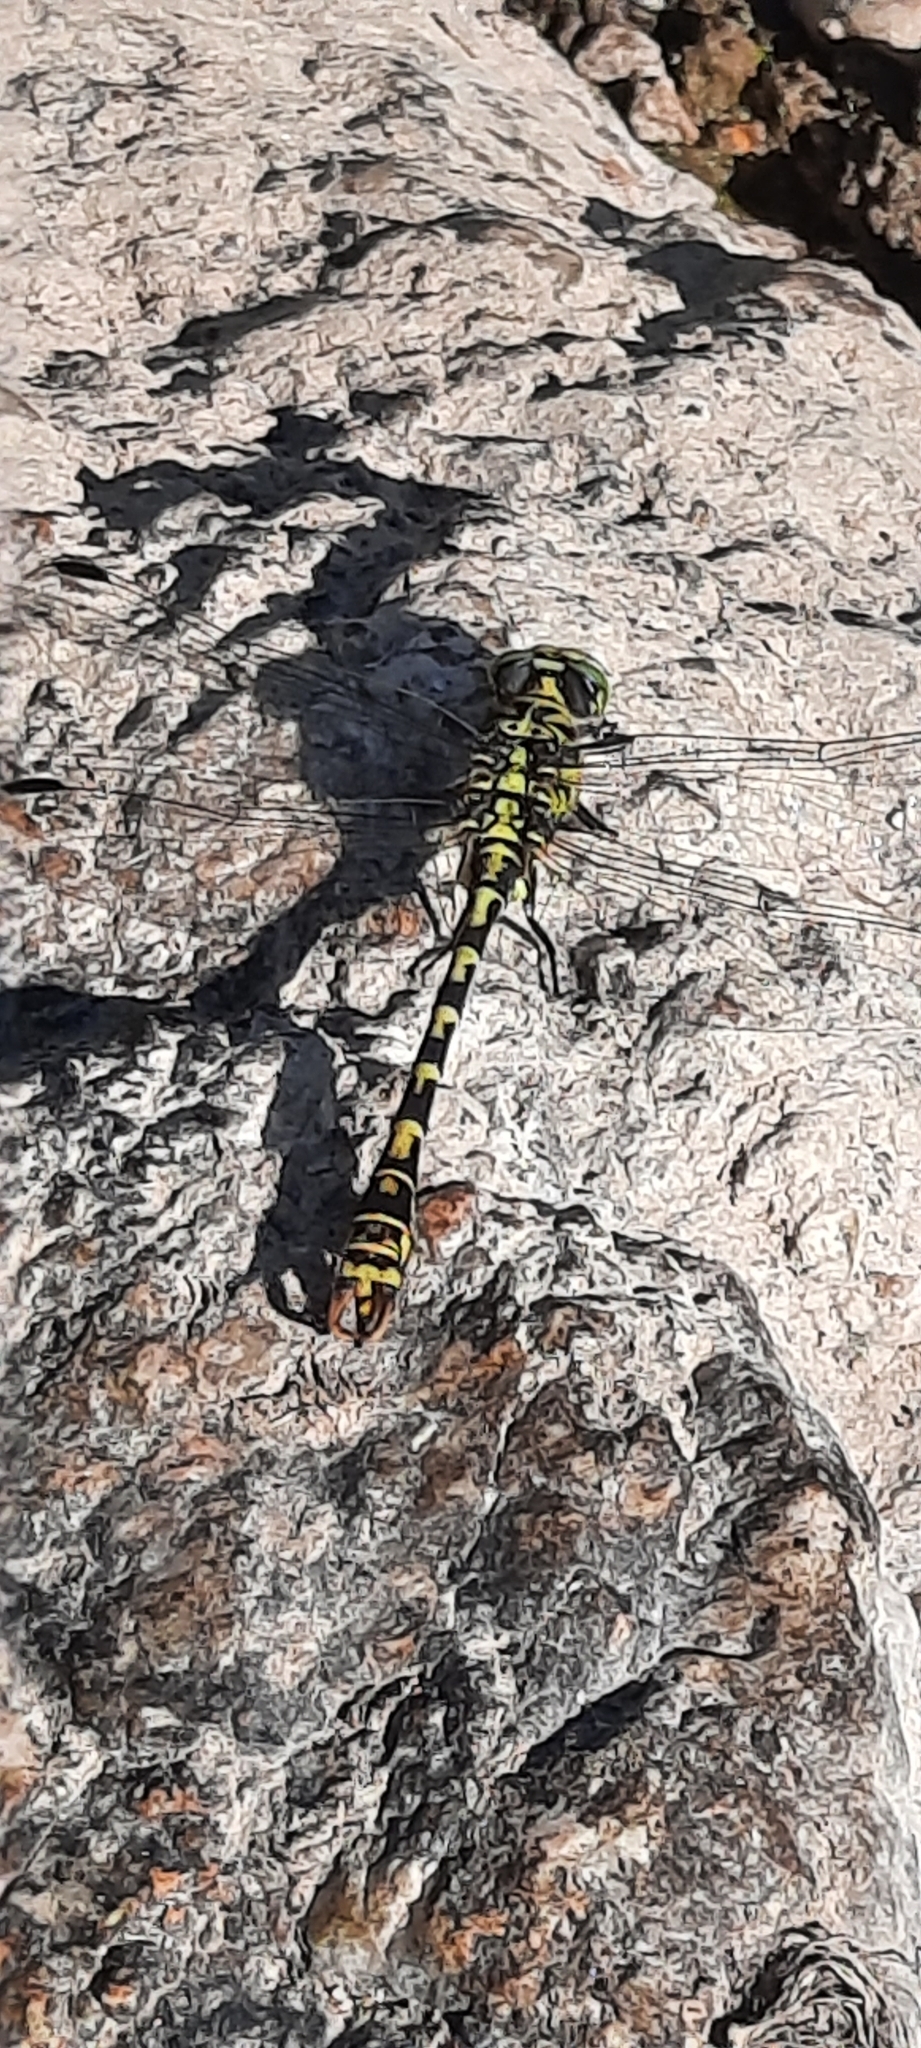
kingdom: Animalia
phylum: Arthropoda
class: Insecta
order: Odonata
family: Gomphidae
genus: Onychogomphus
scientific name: Onychogomphus forcipatus
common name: Small pincertail
